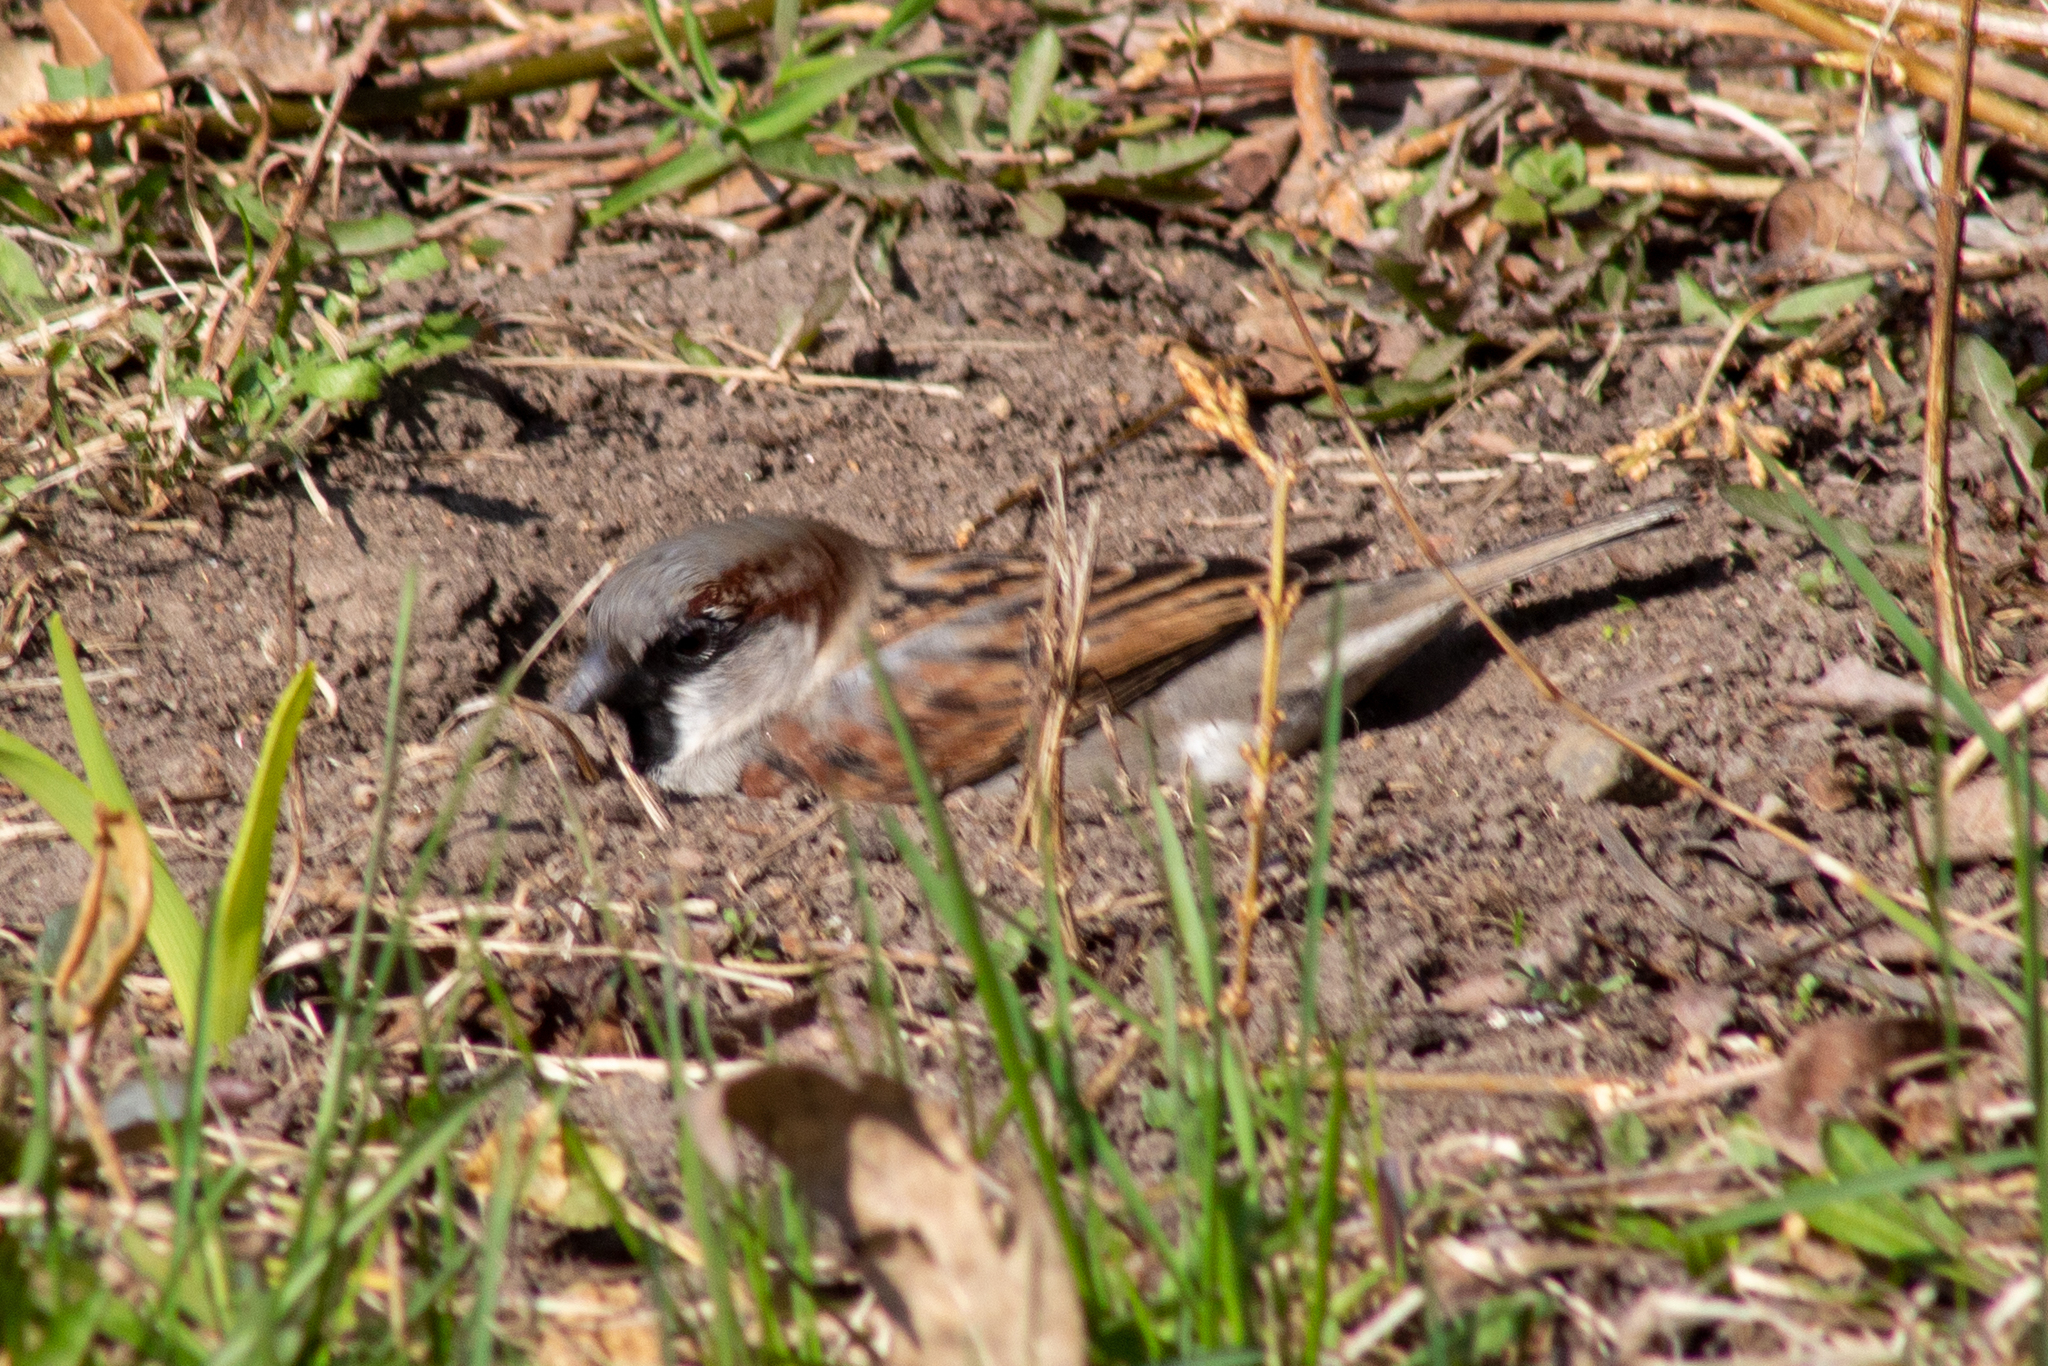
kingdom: Animalia
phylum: Chordata
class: Aves
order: Passeriformes
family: Passeridae
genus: Passer
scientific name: Passer domesticus
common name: House sparrow
